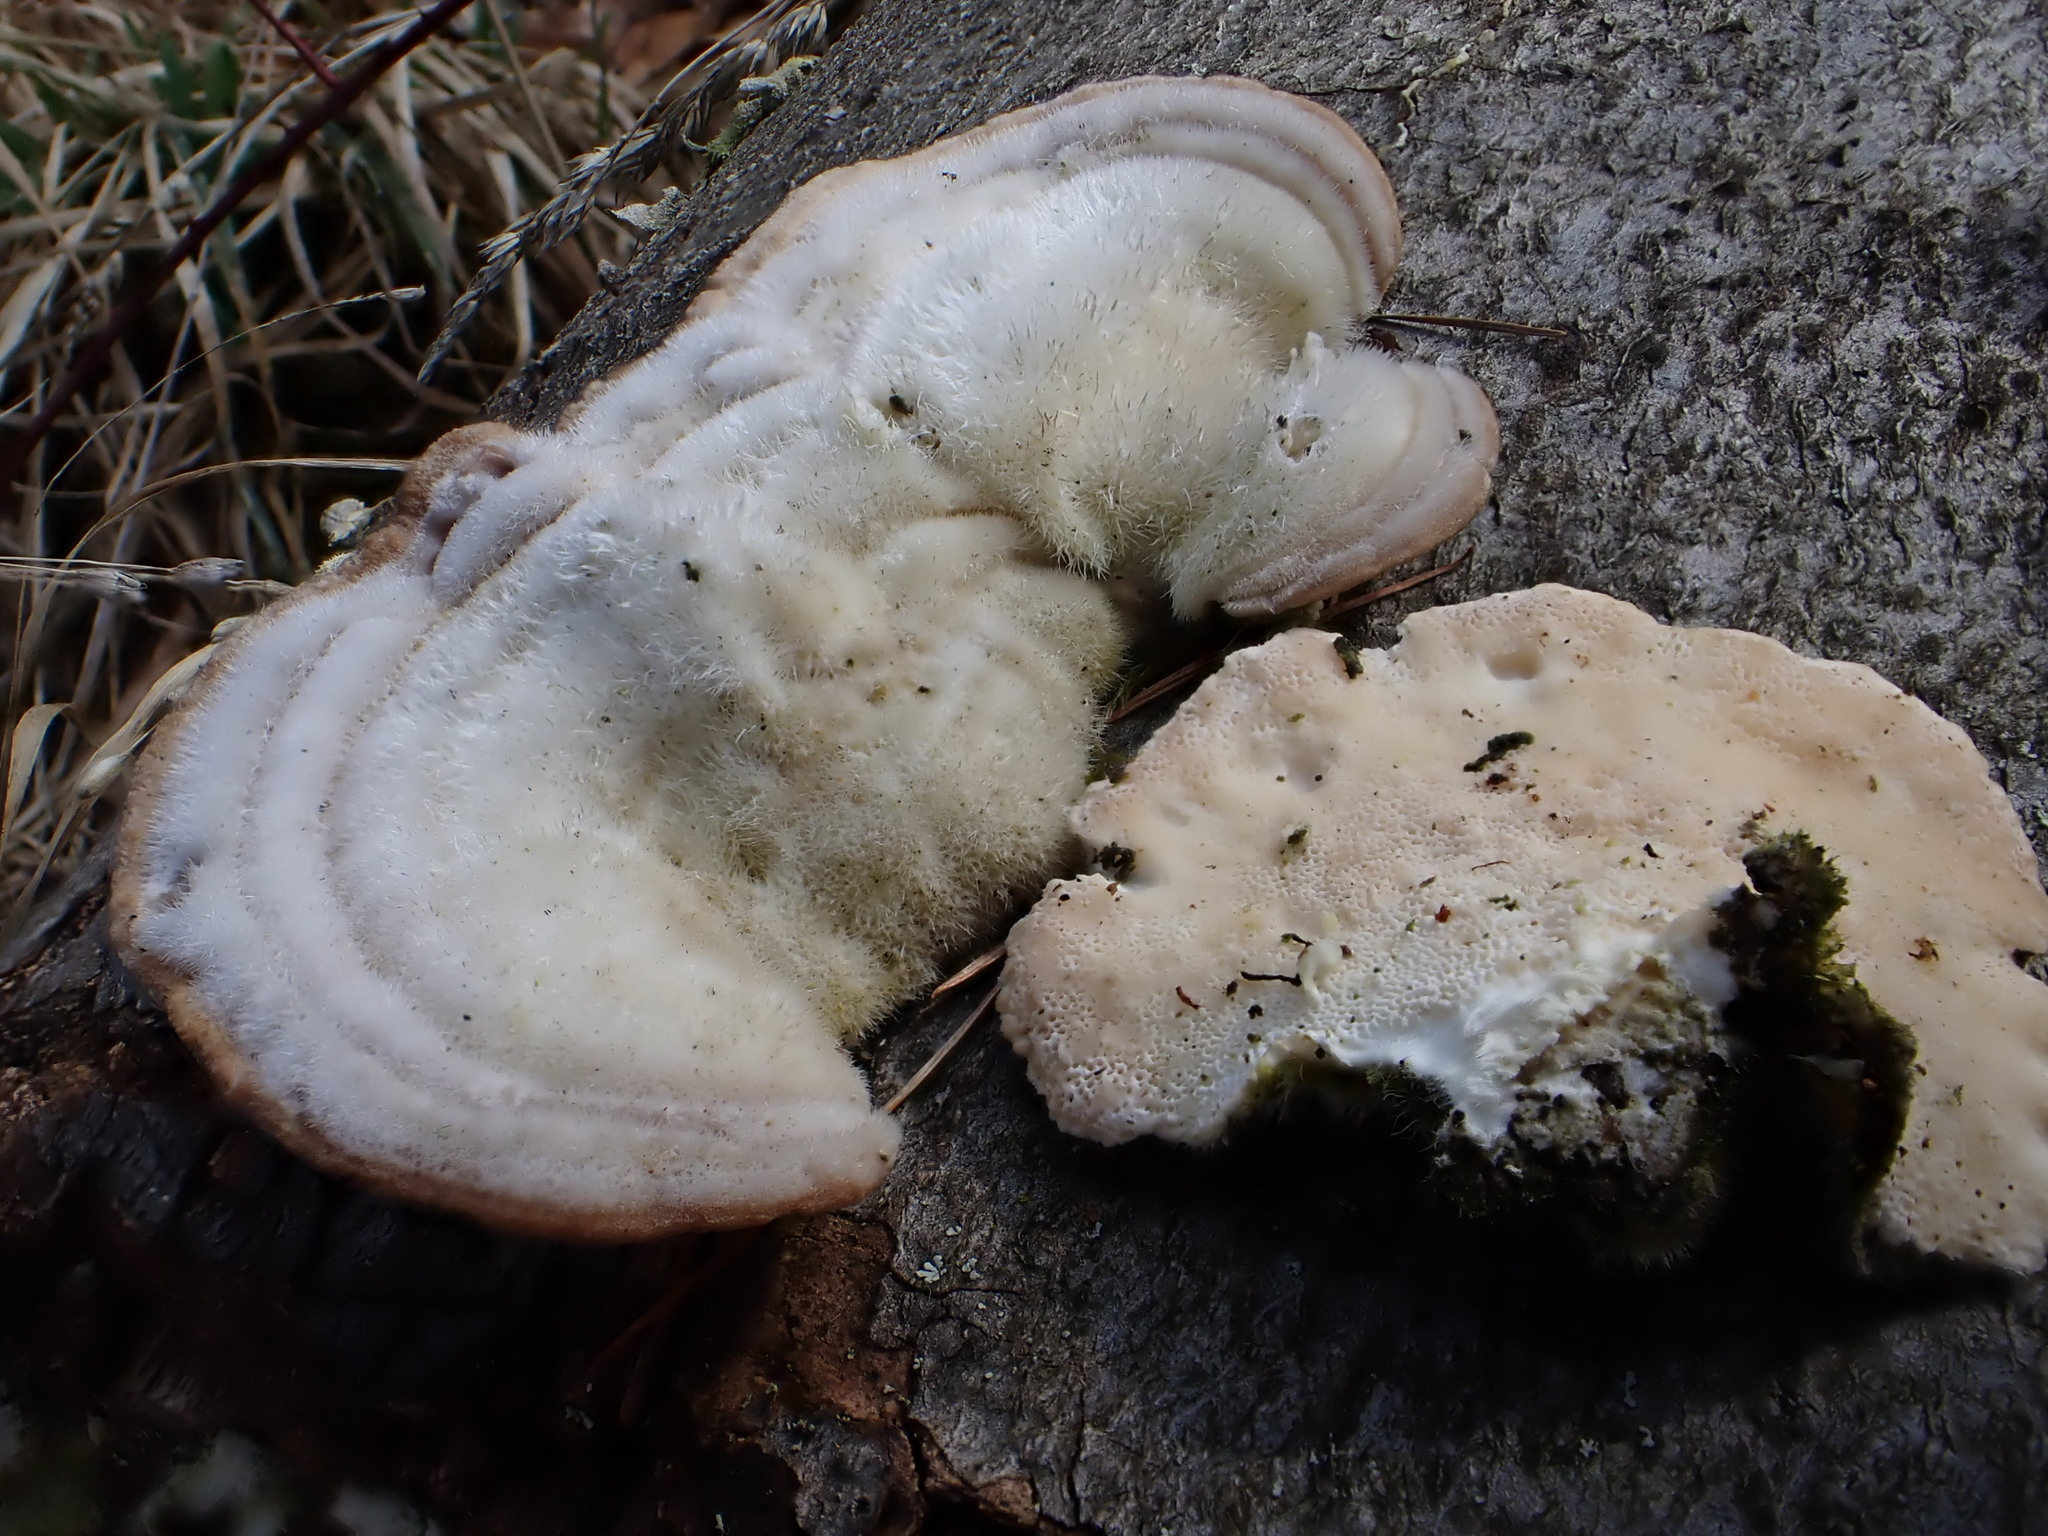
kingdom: Fungi
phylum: Basidiomycota
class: Agaricomycetes
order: Polyporales
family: Polyporaceae
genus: Trametes
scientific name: Trametes hirsuta
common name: Hairy bracket
